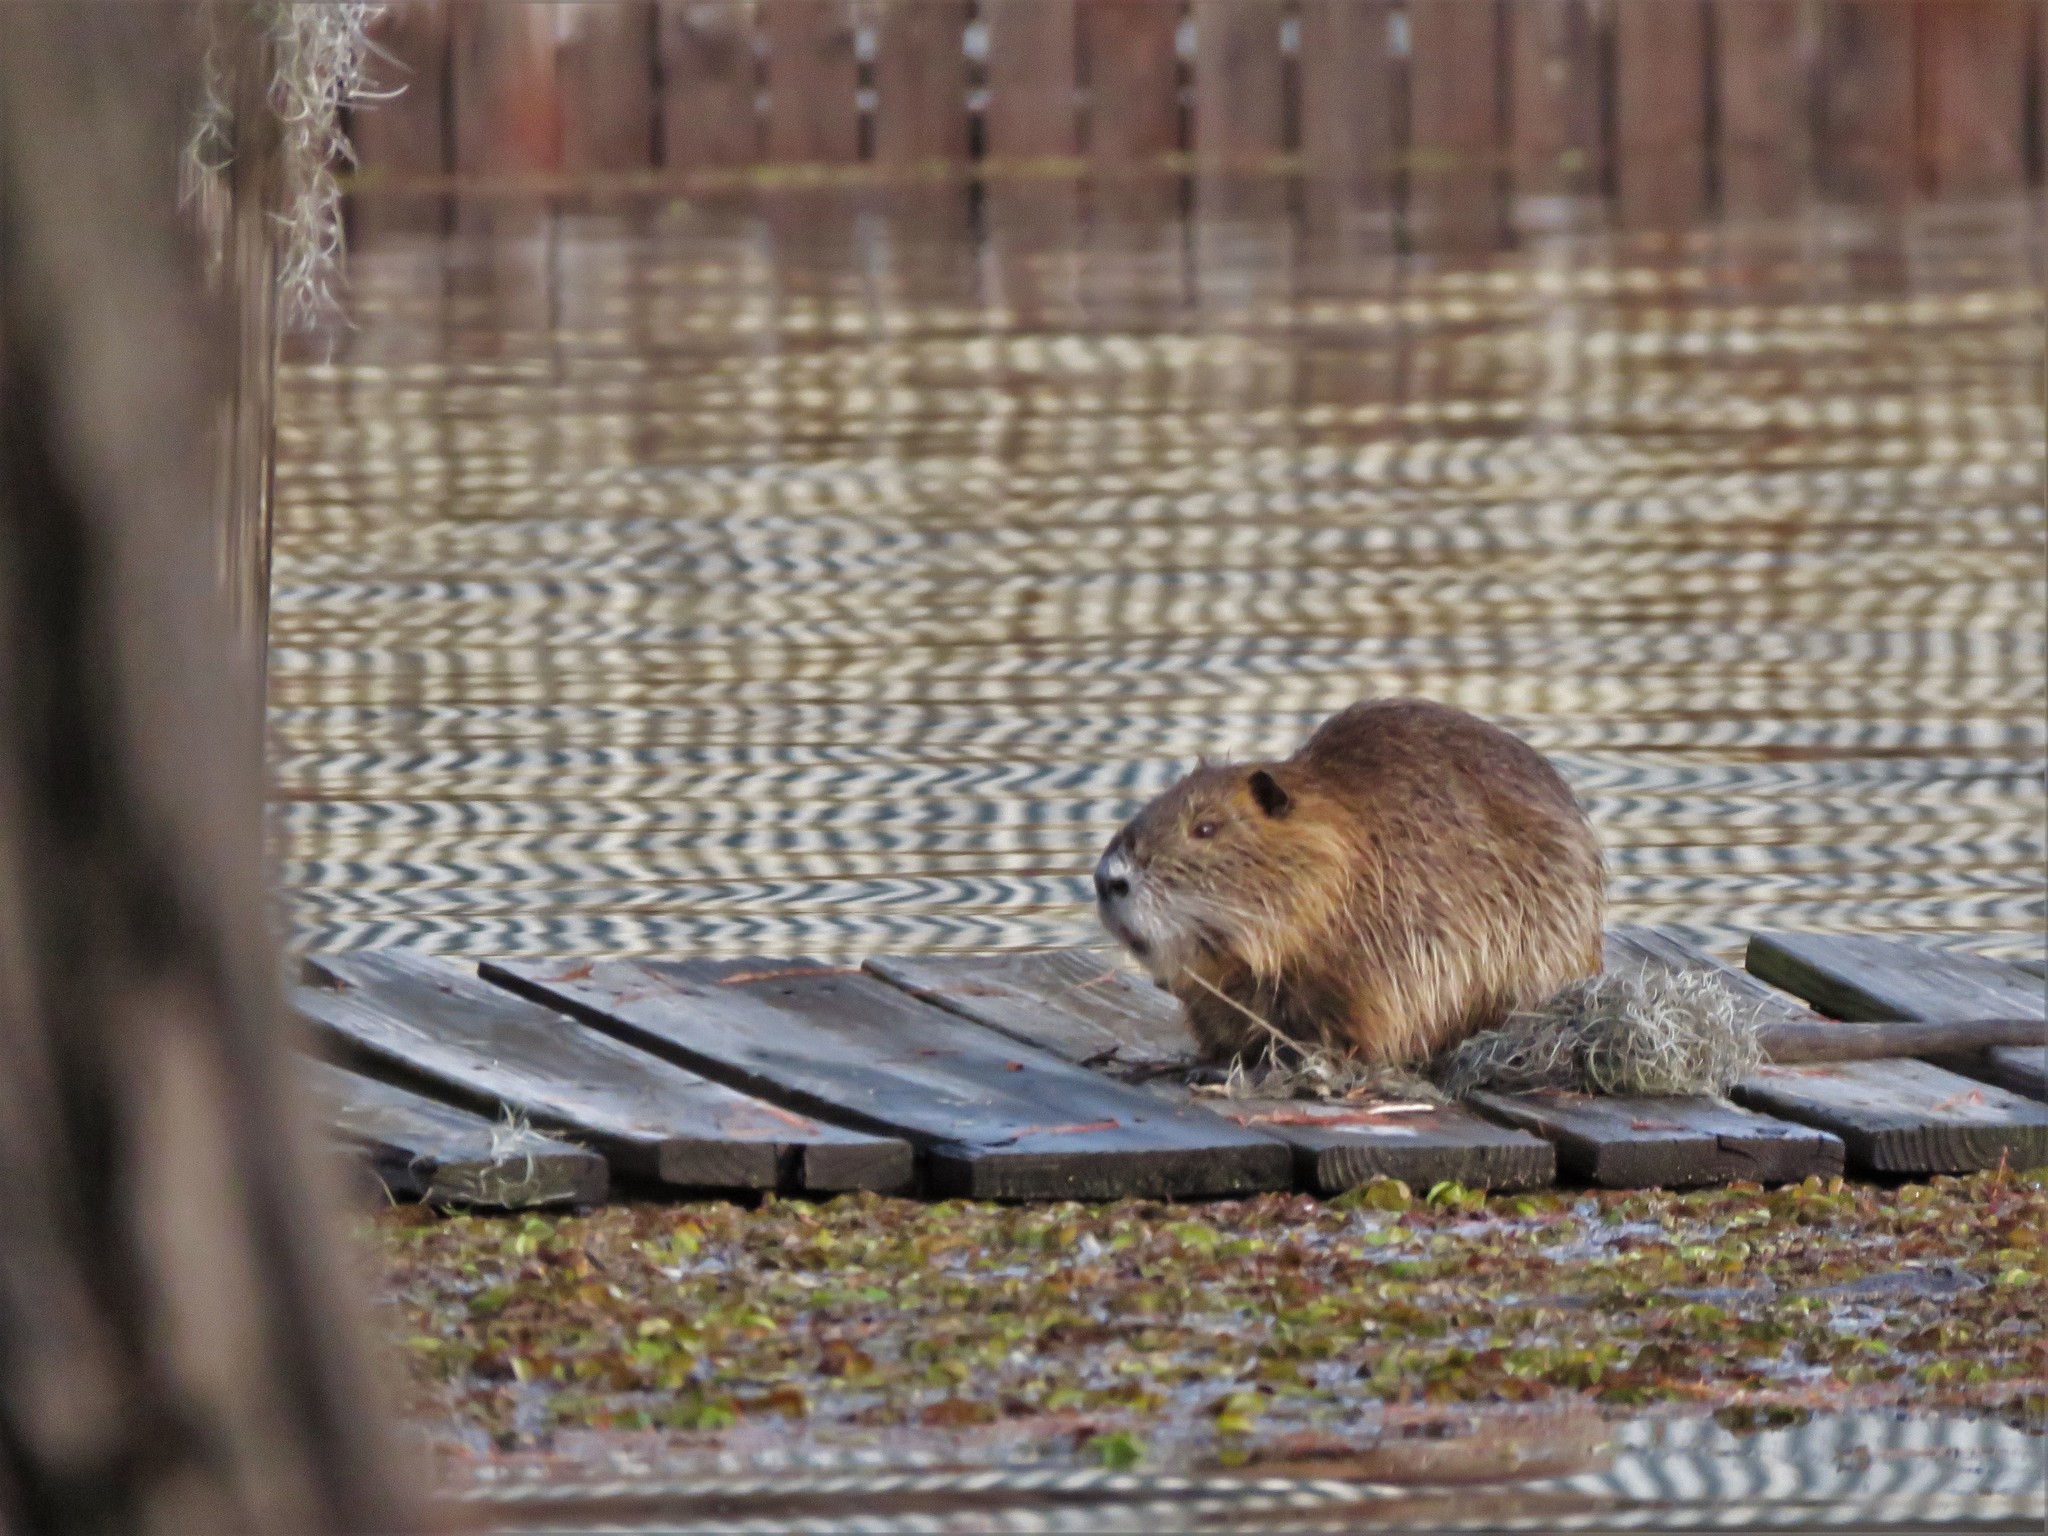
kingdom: Animalia
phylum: Chordata
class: Mammalia
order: Rodentia
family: Myocastoridae
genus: Myocastor
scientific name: Myocastor coypus
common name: Coypu
